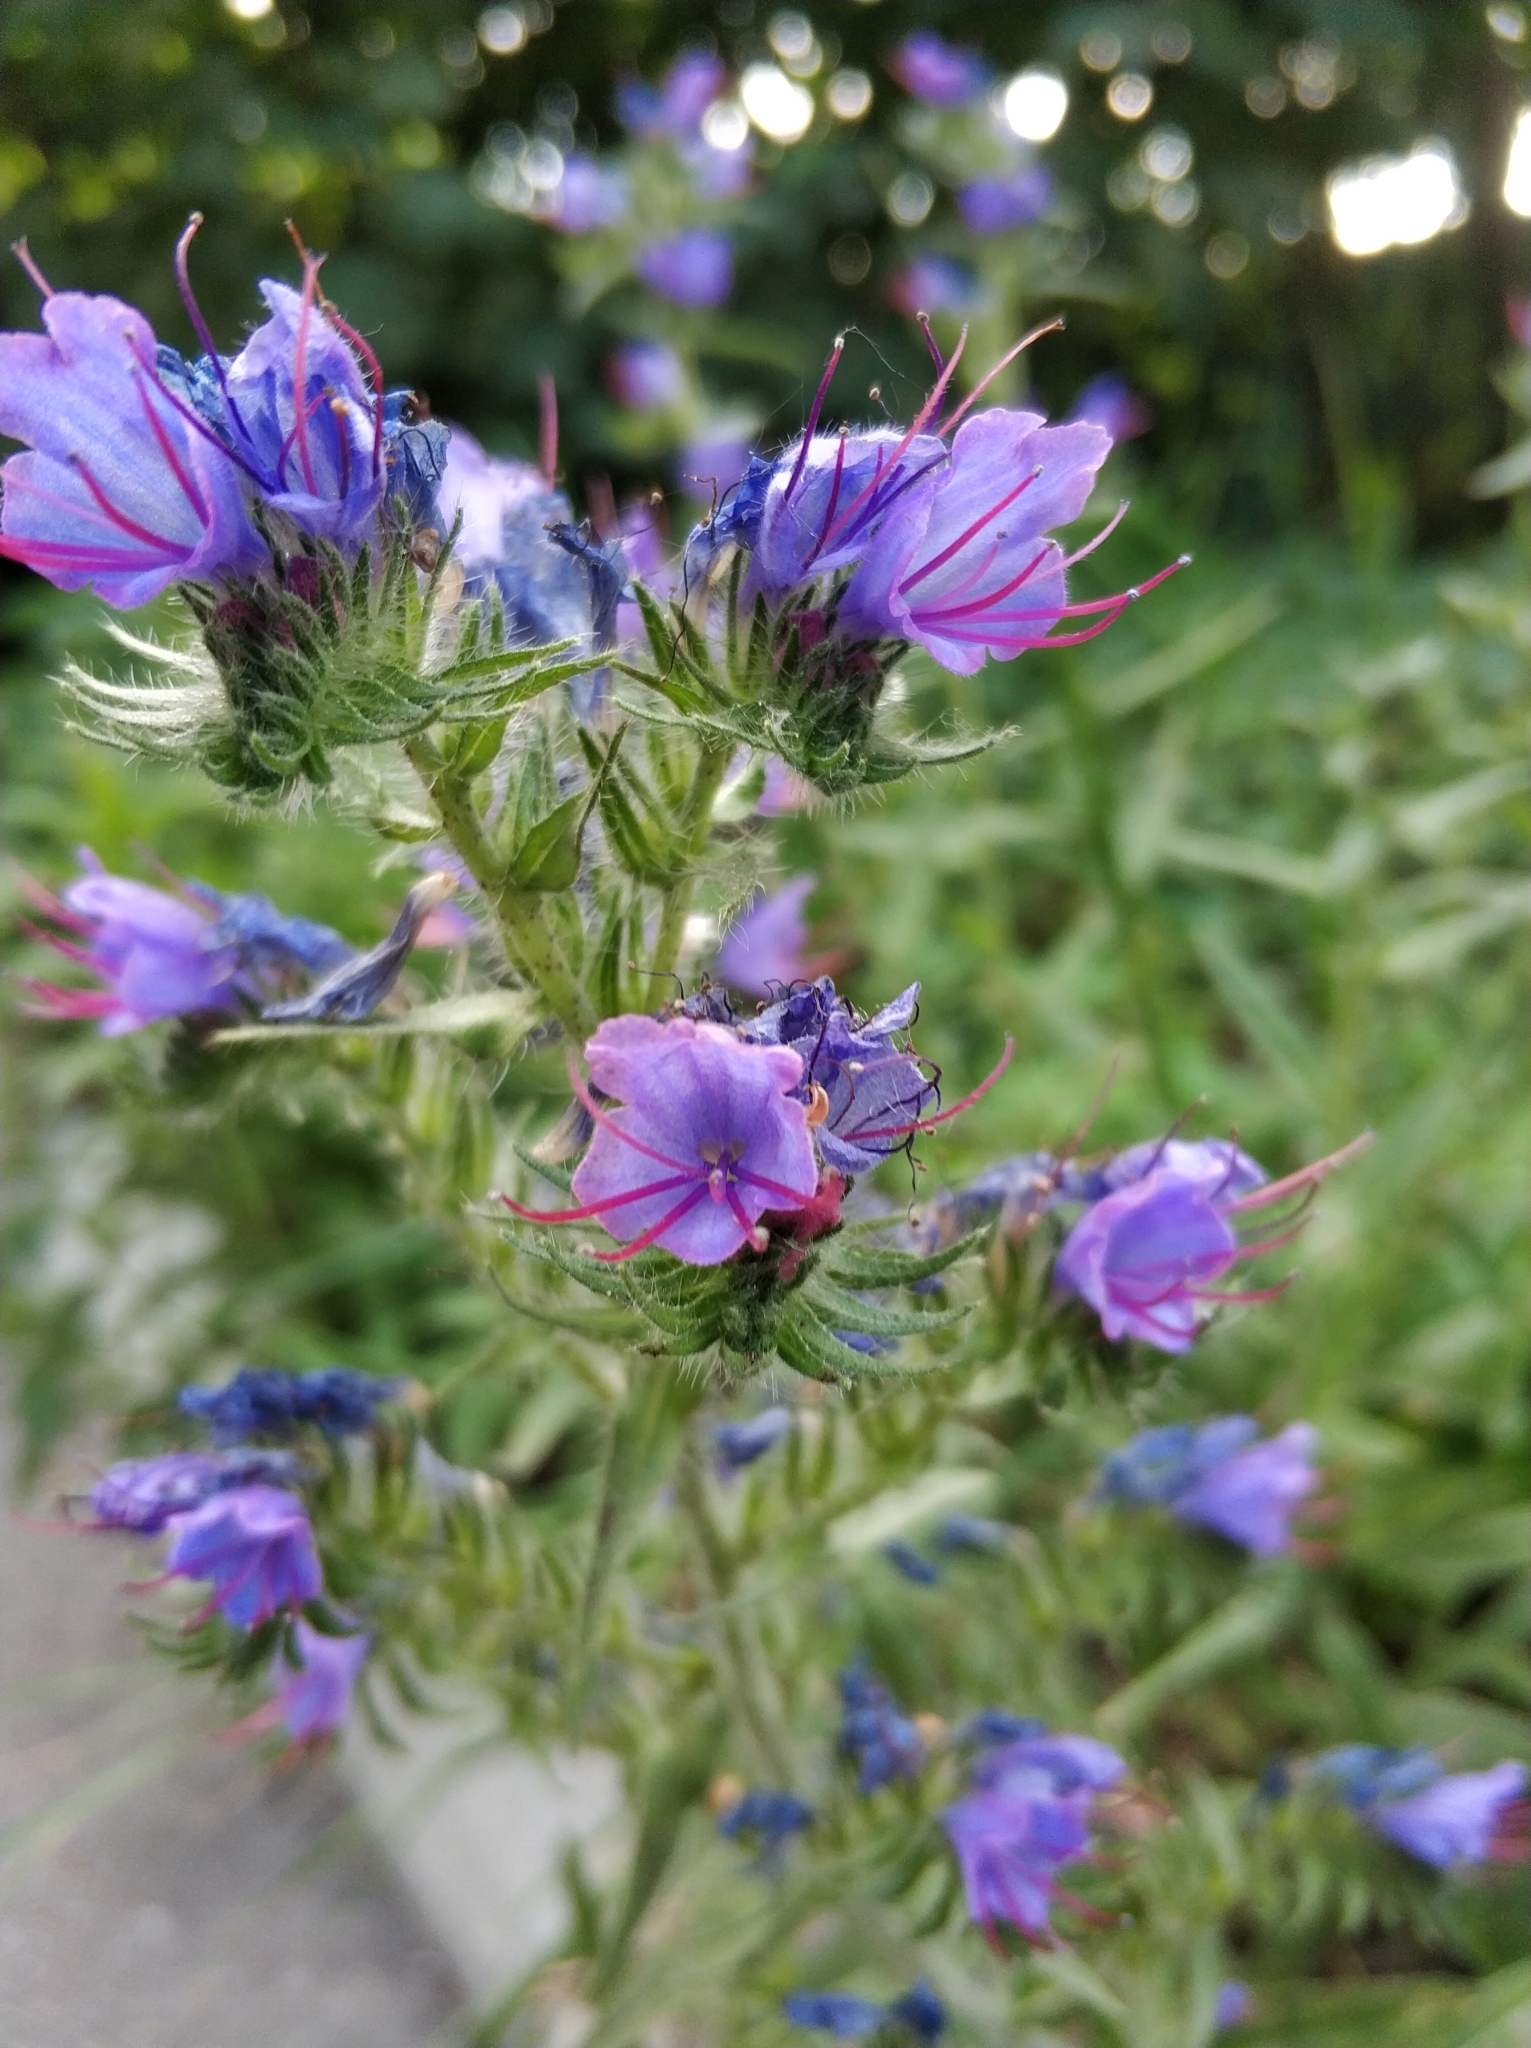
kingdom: Plantae
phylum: Tracheophyta
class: Magnoliopsida
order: Boraginales
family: Boraginaceae
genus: Echium
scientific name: Echium vulgare
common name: Common viper's bugloss
